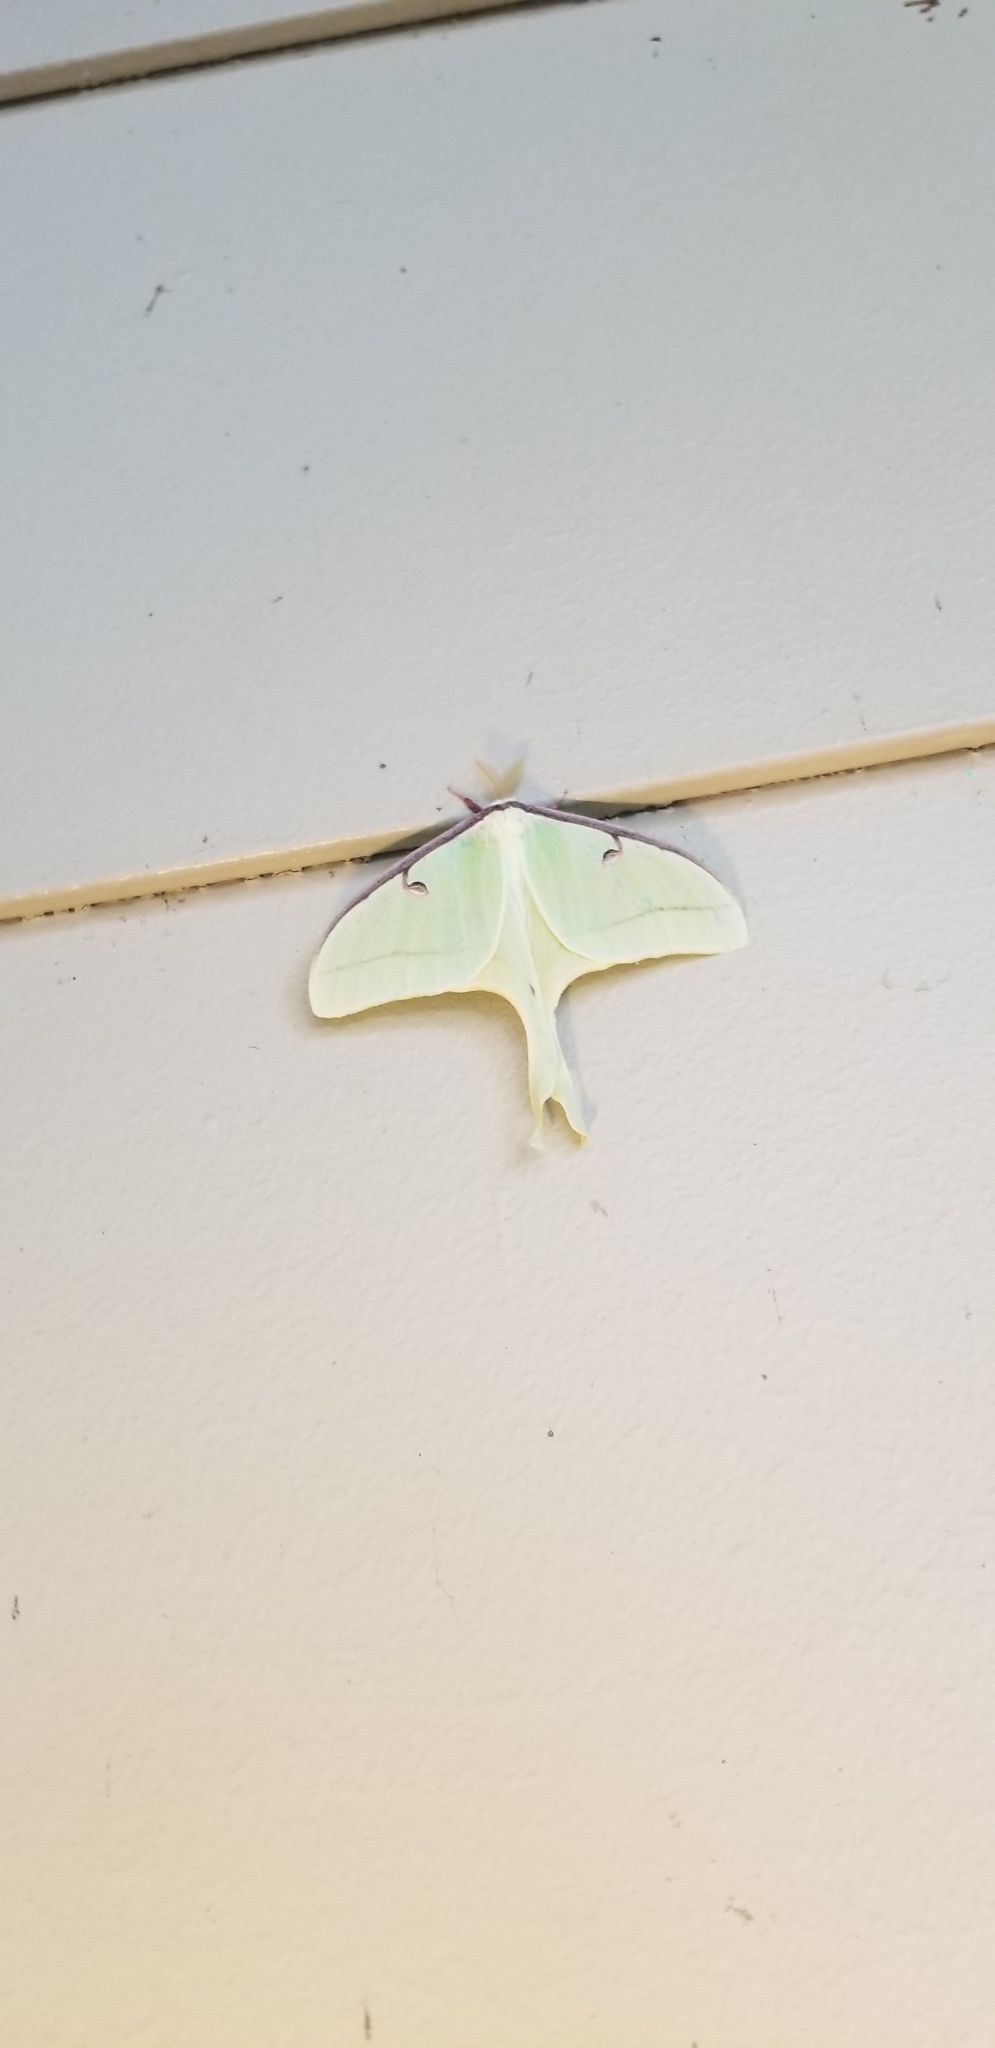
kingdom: Animalia
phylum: Arthropoda
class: Insecta
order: Lepidoptera
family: Saturniidae
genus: Actias
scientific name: Actias luna
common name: Luna moth
